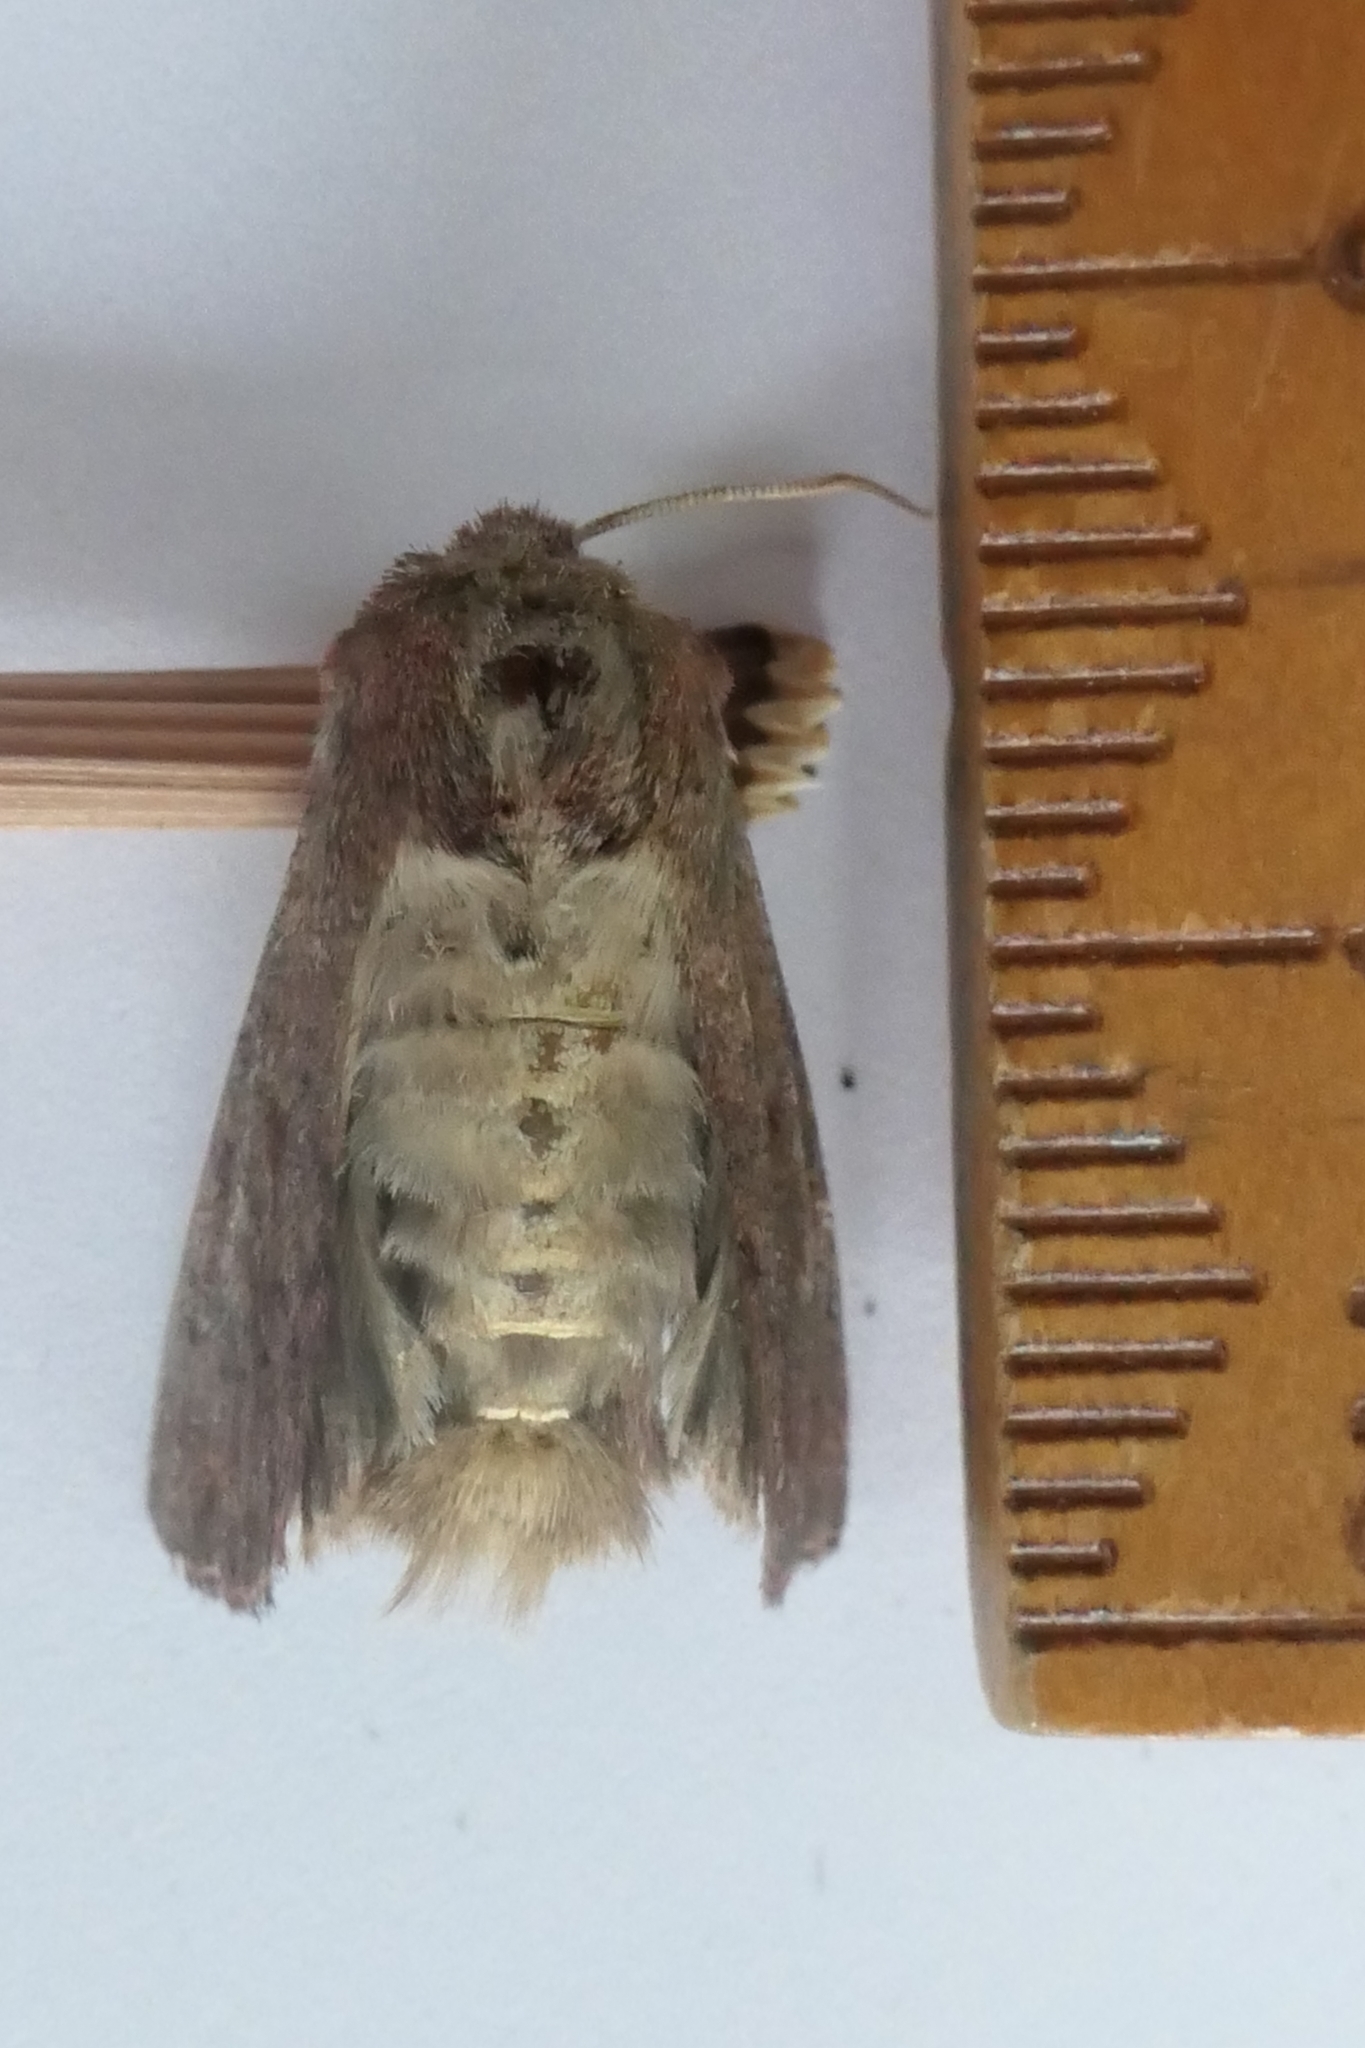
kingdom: Animalia
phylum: Arthropoda
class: Insecta
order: Lepidoptera
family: Noctuidae
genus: Ichneutica
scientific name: Ichneutica
